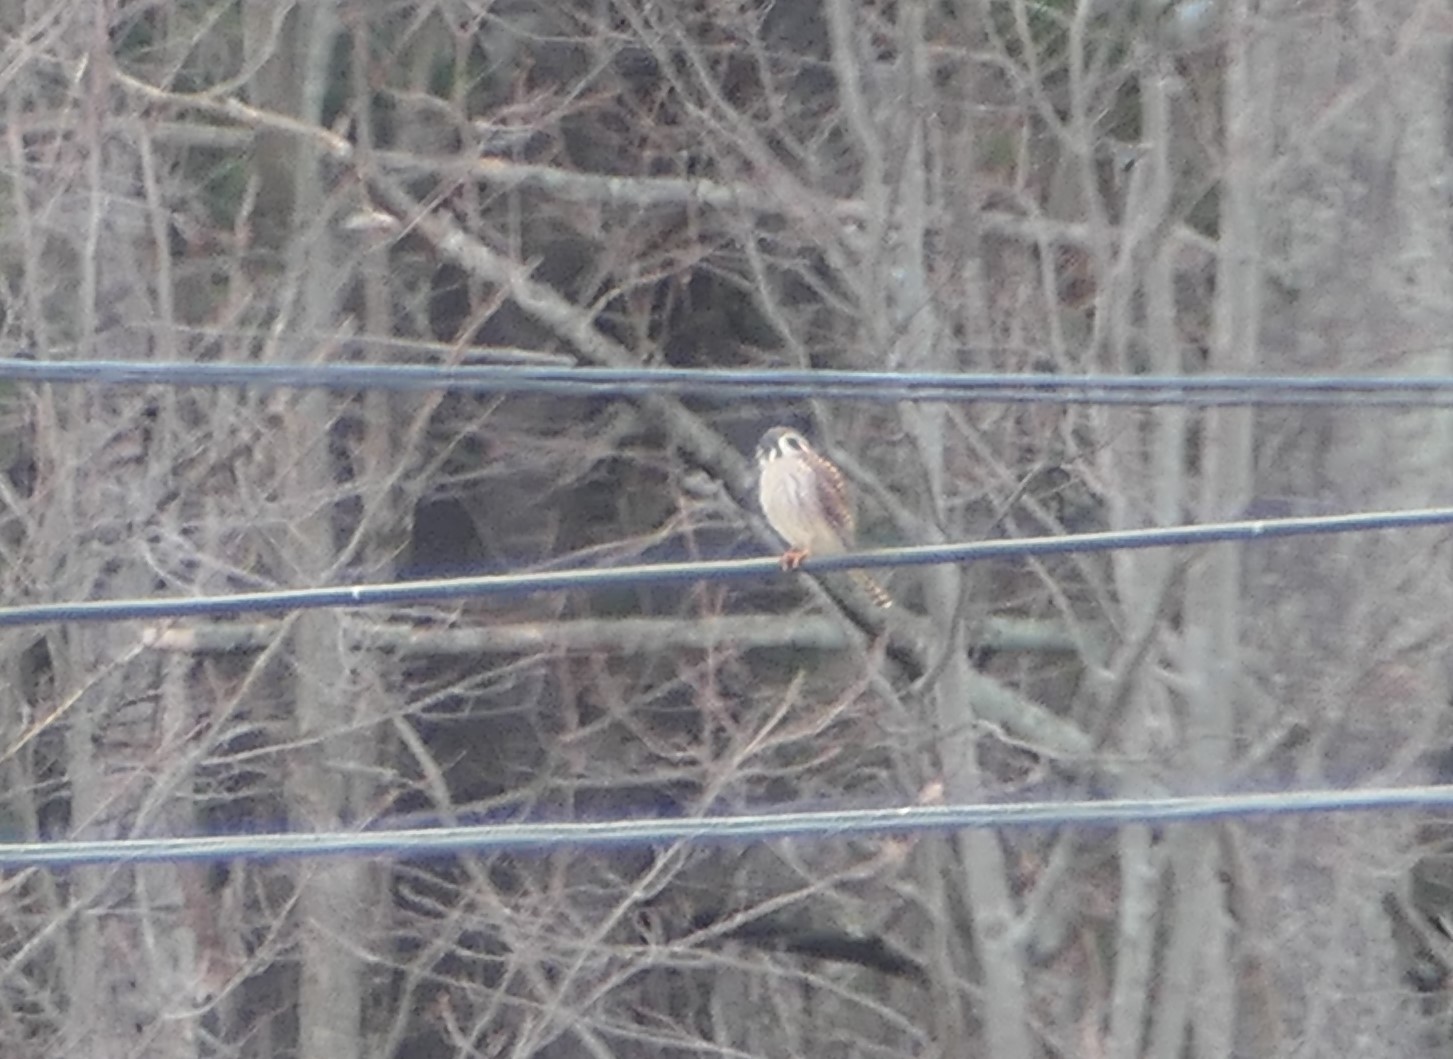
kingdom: Animalia
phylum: Chordata
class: Aves
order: Falconiformes
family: Falconidae
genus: Falco
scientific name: Falco sparverius
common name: American kestrel
